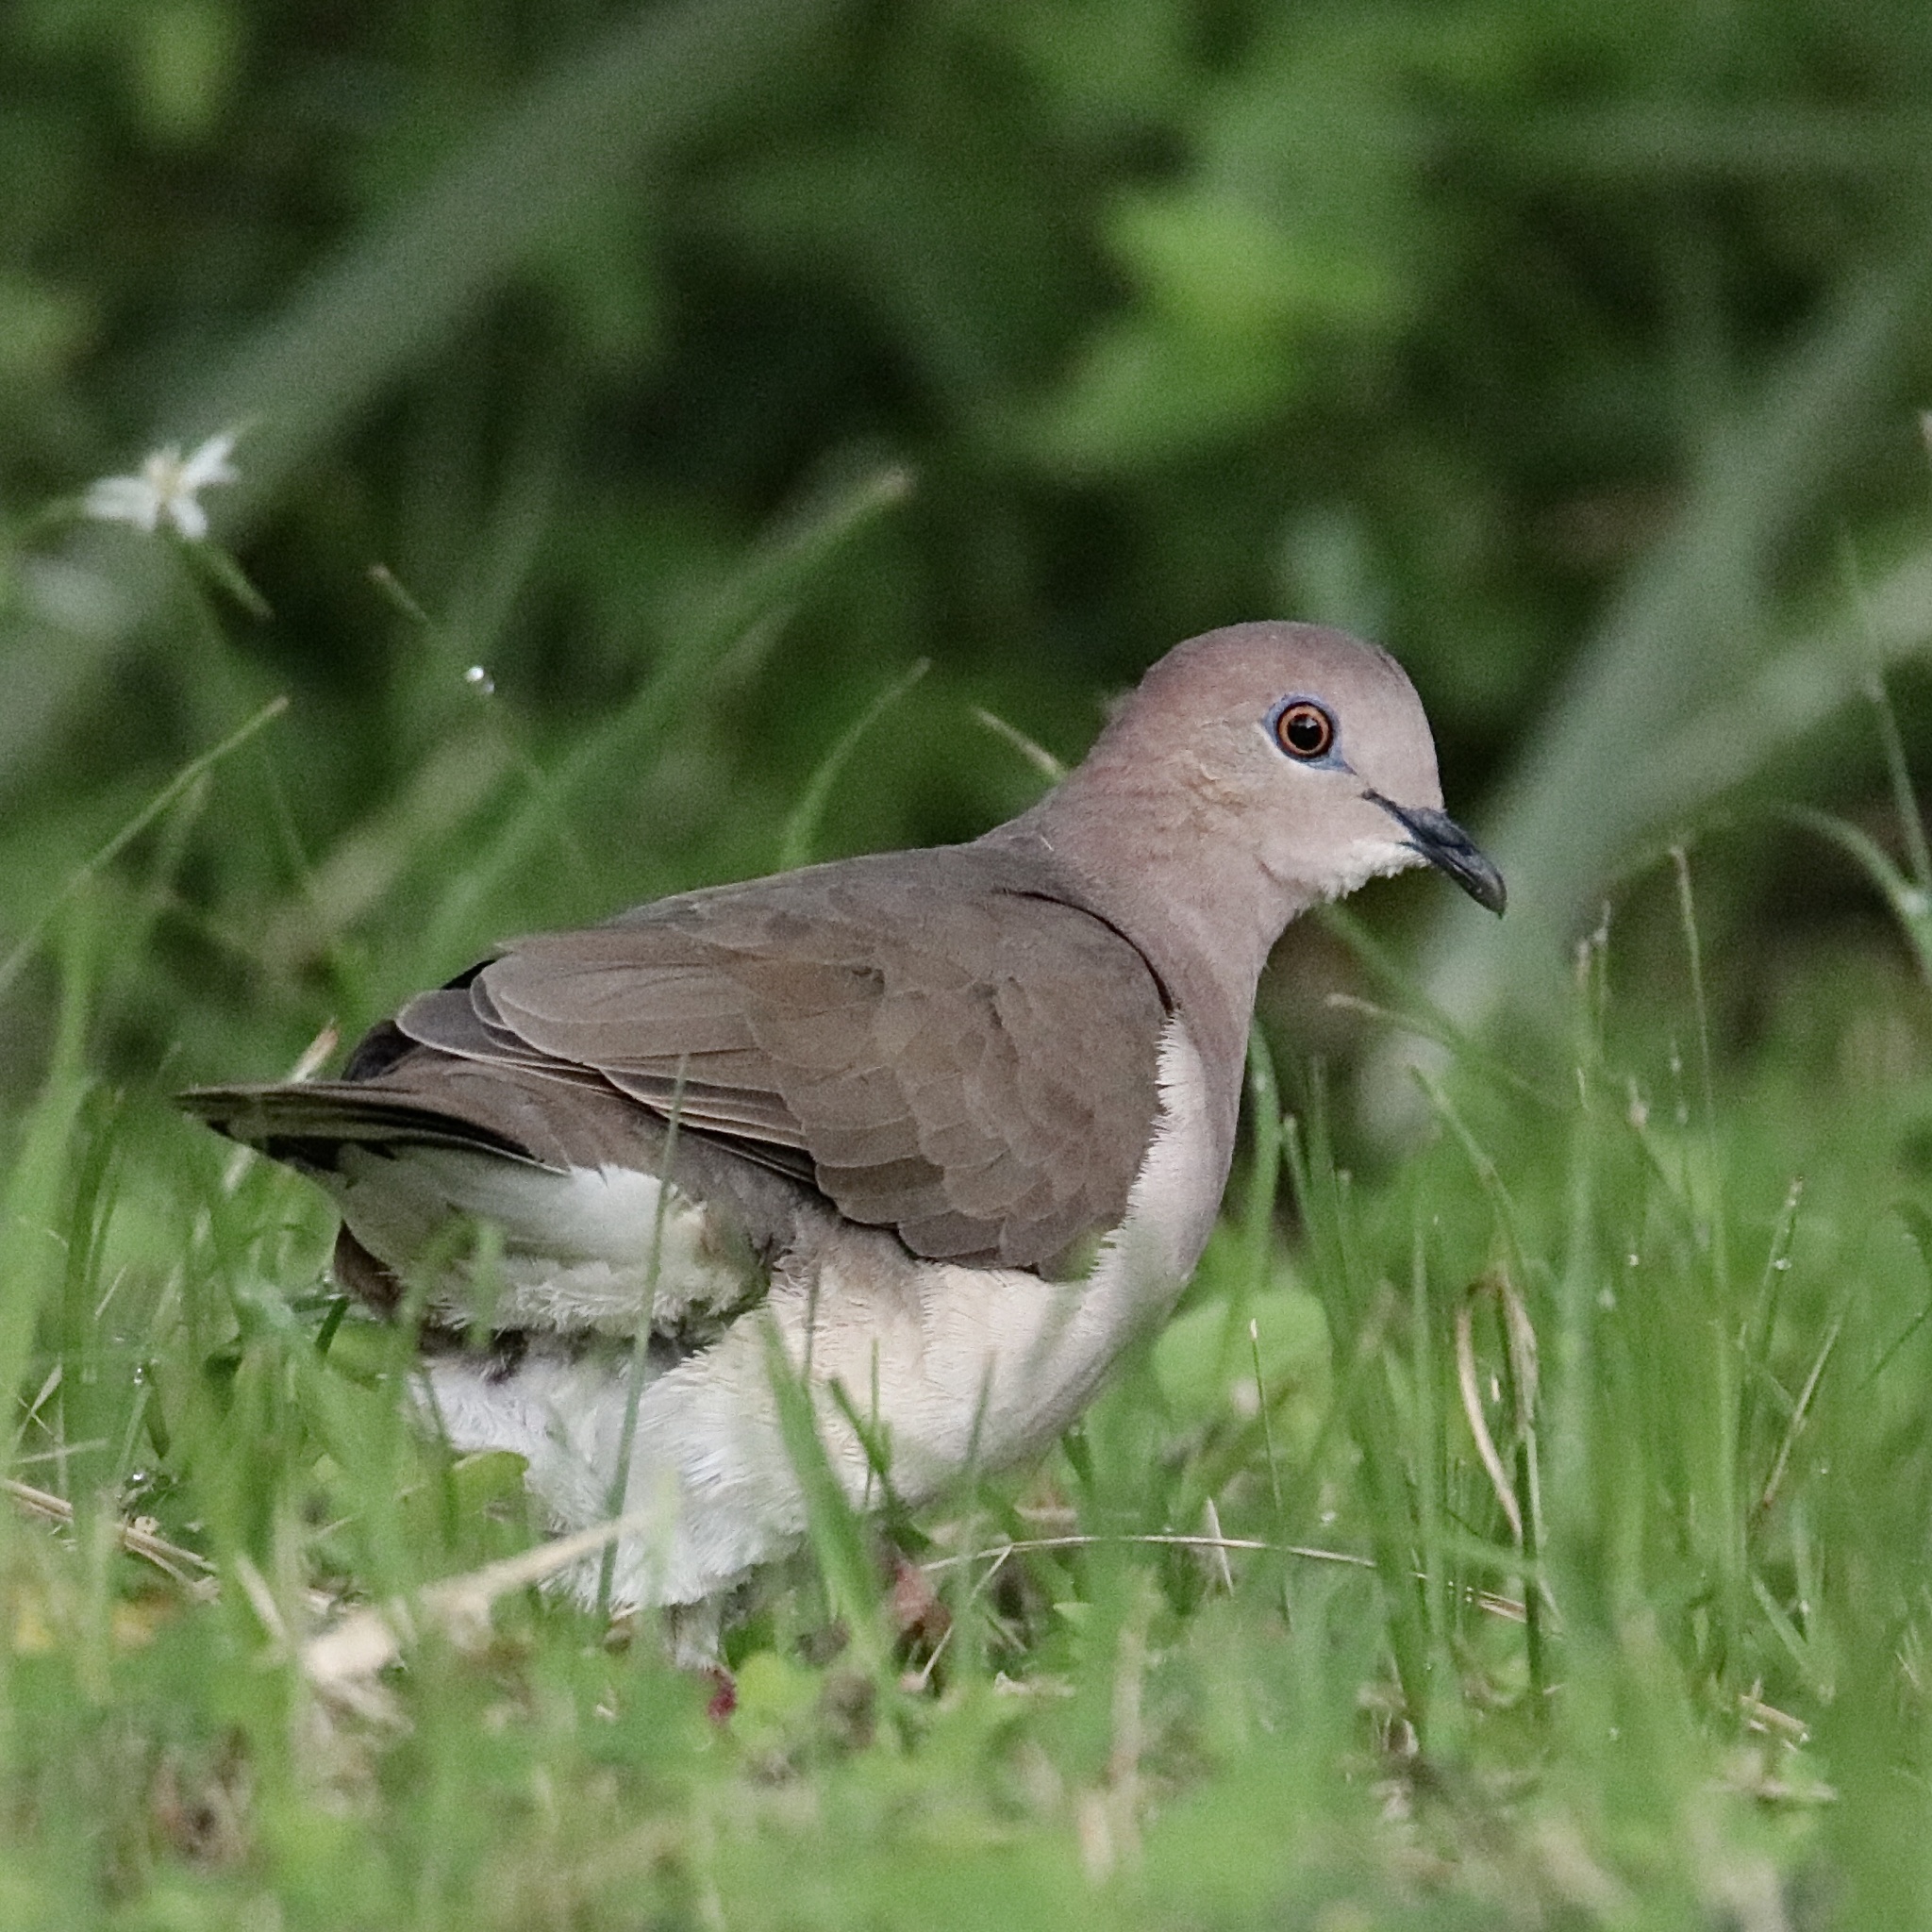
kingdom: Animalia
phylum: Chordata
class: Aves
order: Columbiformes
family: Columbidae
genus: Leptotila
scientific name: Leptotila verreauxi
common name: White-tipped dove
